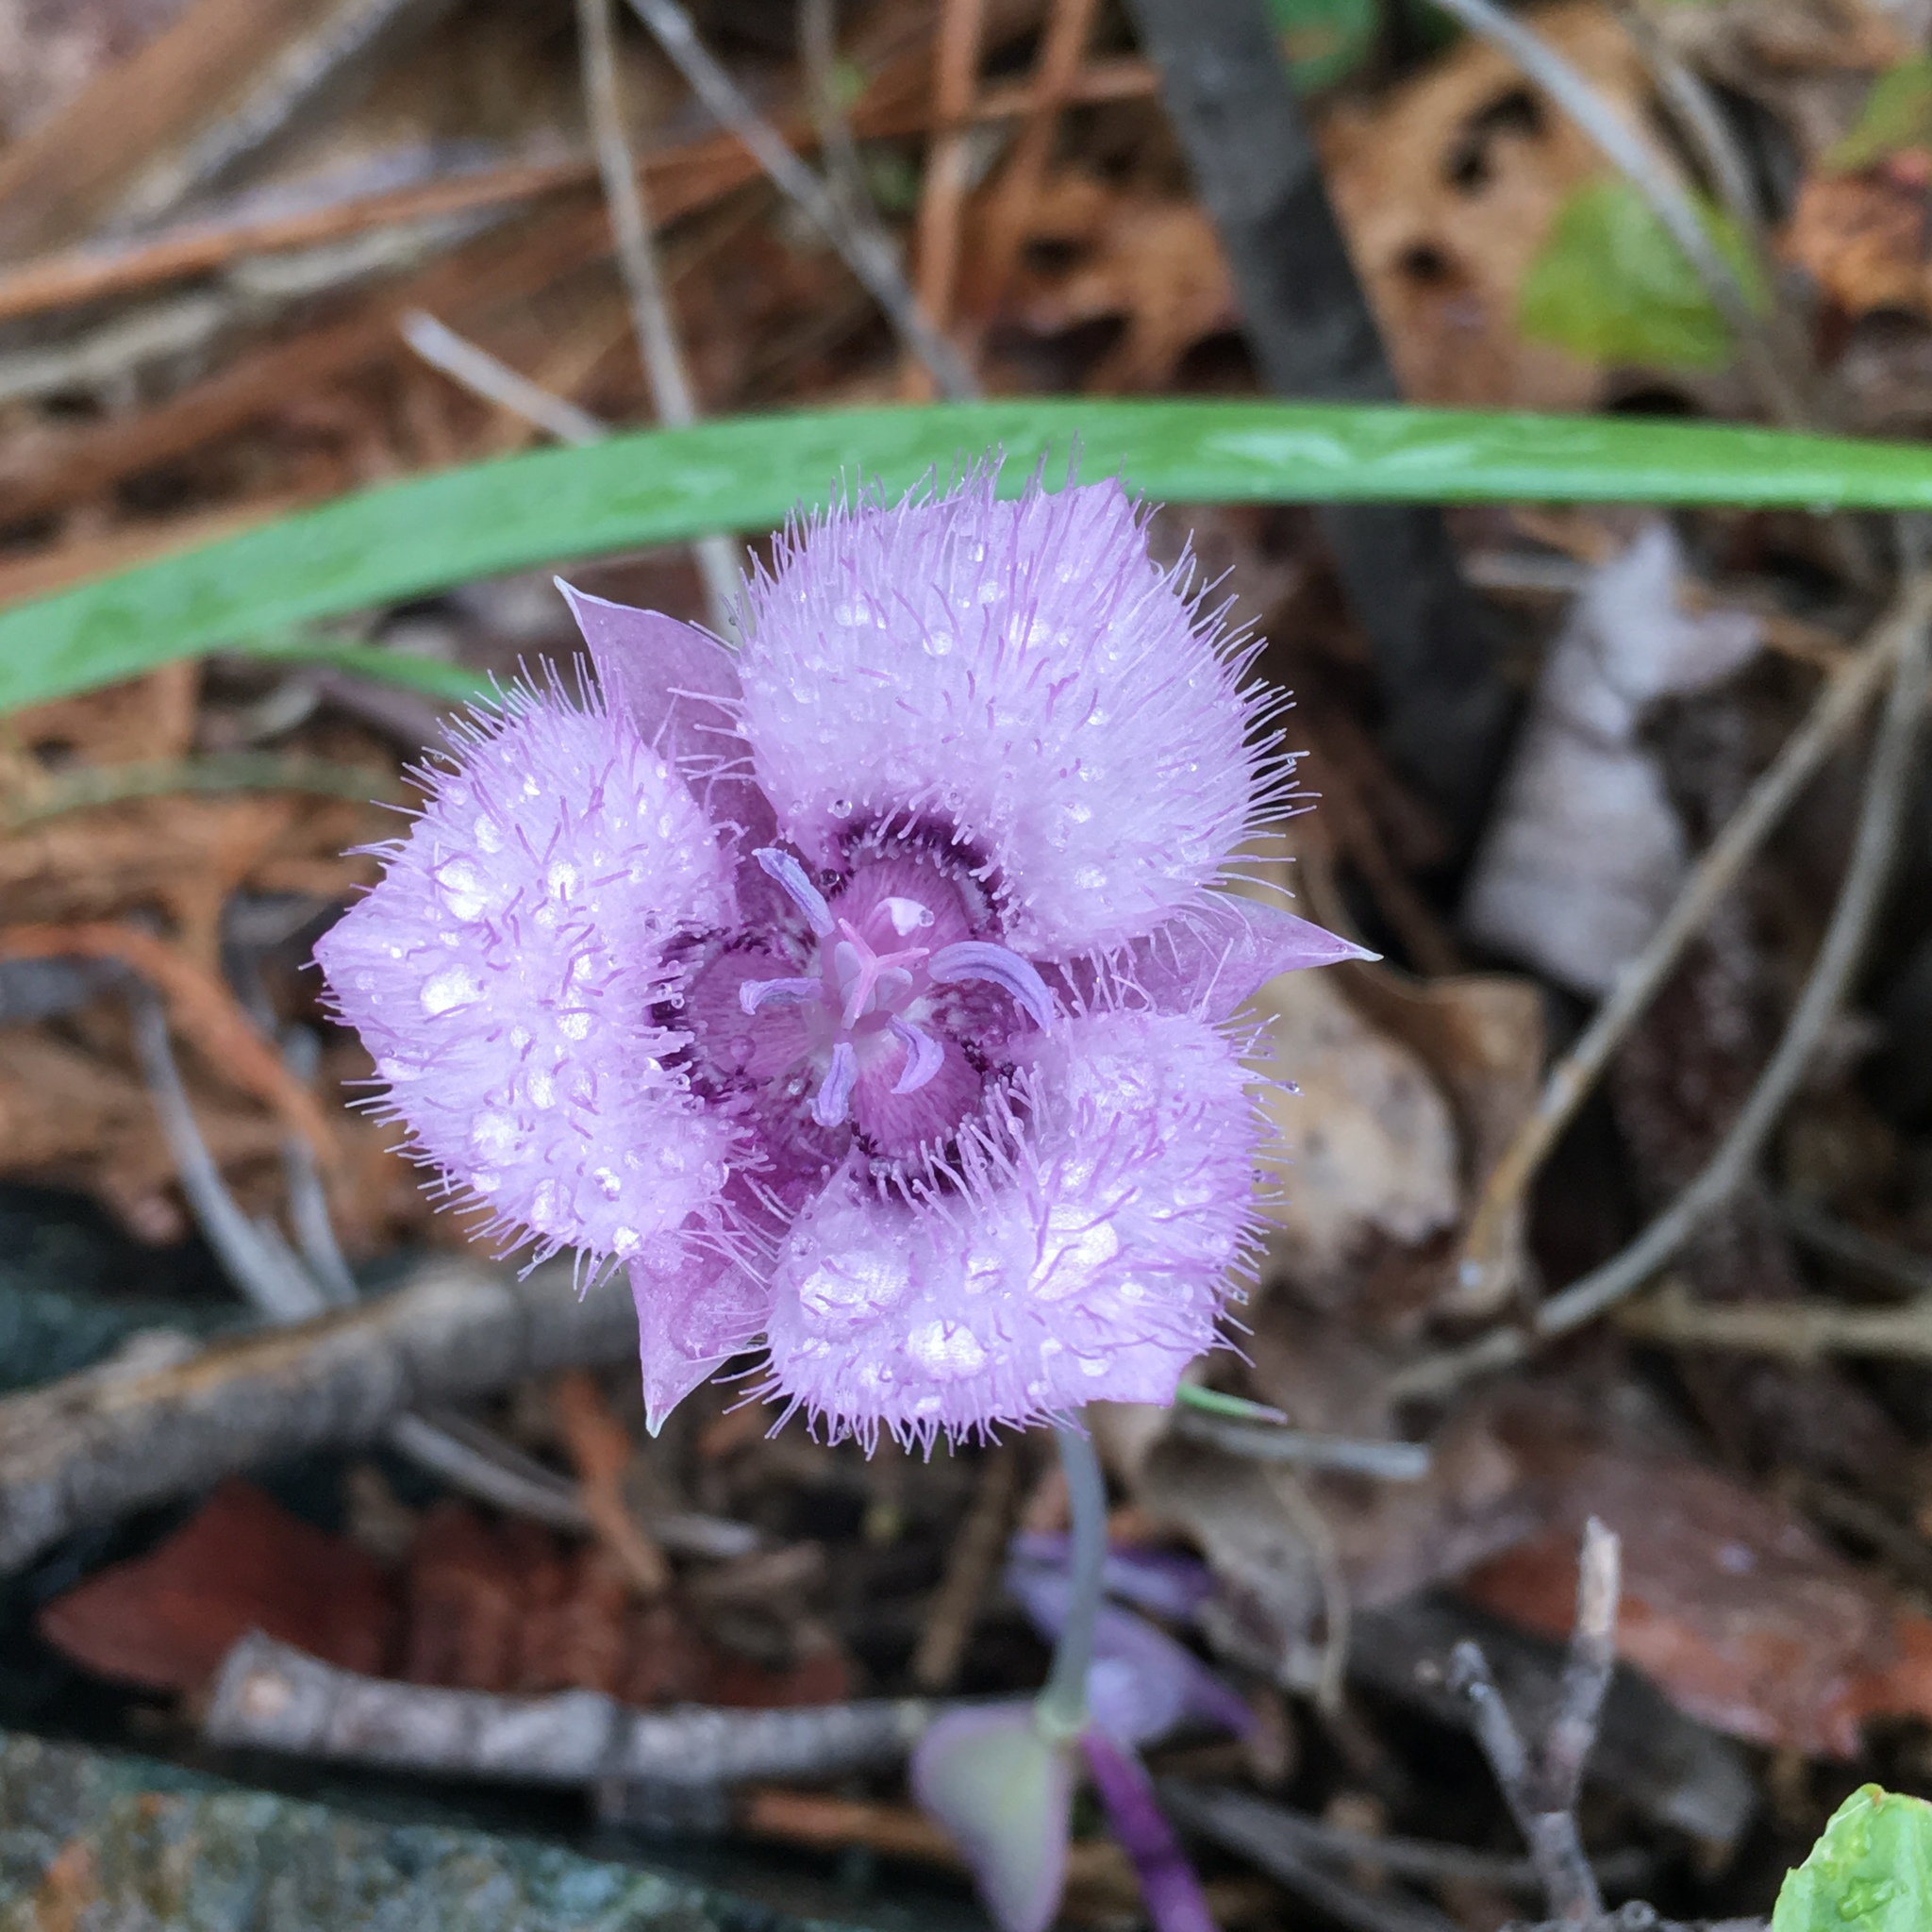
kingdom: Plantae
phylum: Tracheophyta
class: Liliopsida
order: Liliales
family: Liliaceae
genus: Calochortus
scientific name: Calochortus tolmiei
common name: Pussy-ears
